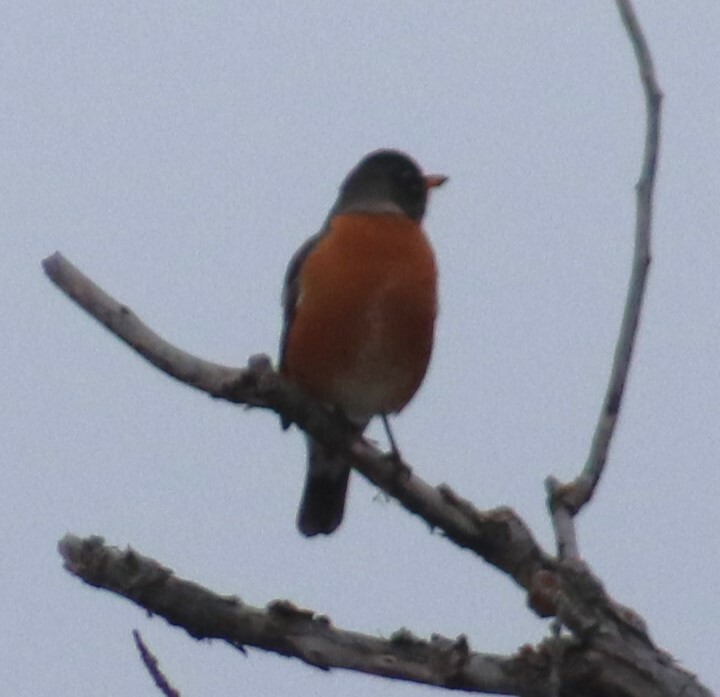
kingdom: Animalia
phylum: Chordata
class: Aves
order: Passeriformes
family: Turdidae
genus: Turdus
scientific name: Turdus migratorius
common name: American robin
